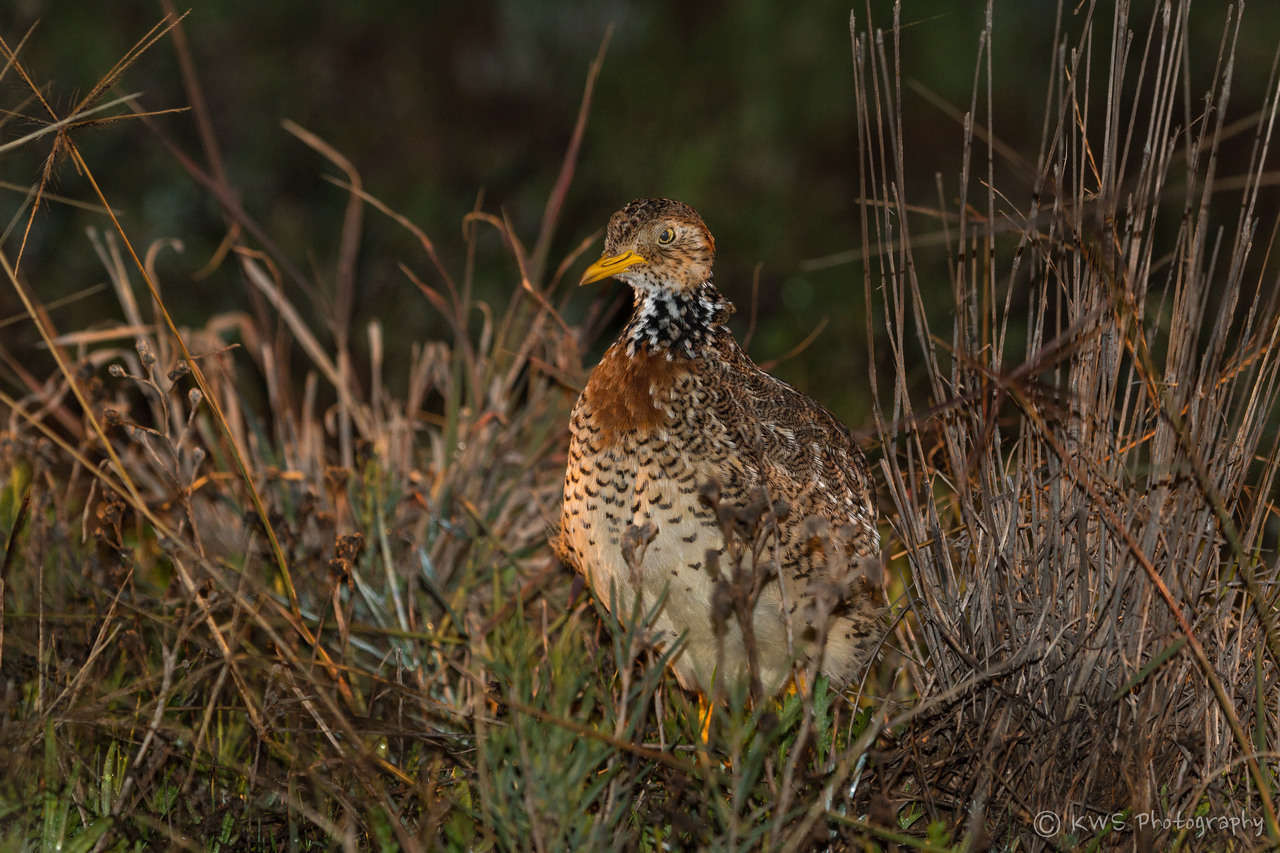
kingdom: Animalia
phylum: Chordata
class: Aves
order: Charadriiformes
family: Pedionomidae
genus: Pedionomus
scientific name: Pedionomus torquatus
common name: Plains-wanderer
